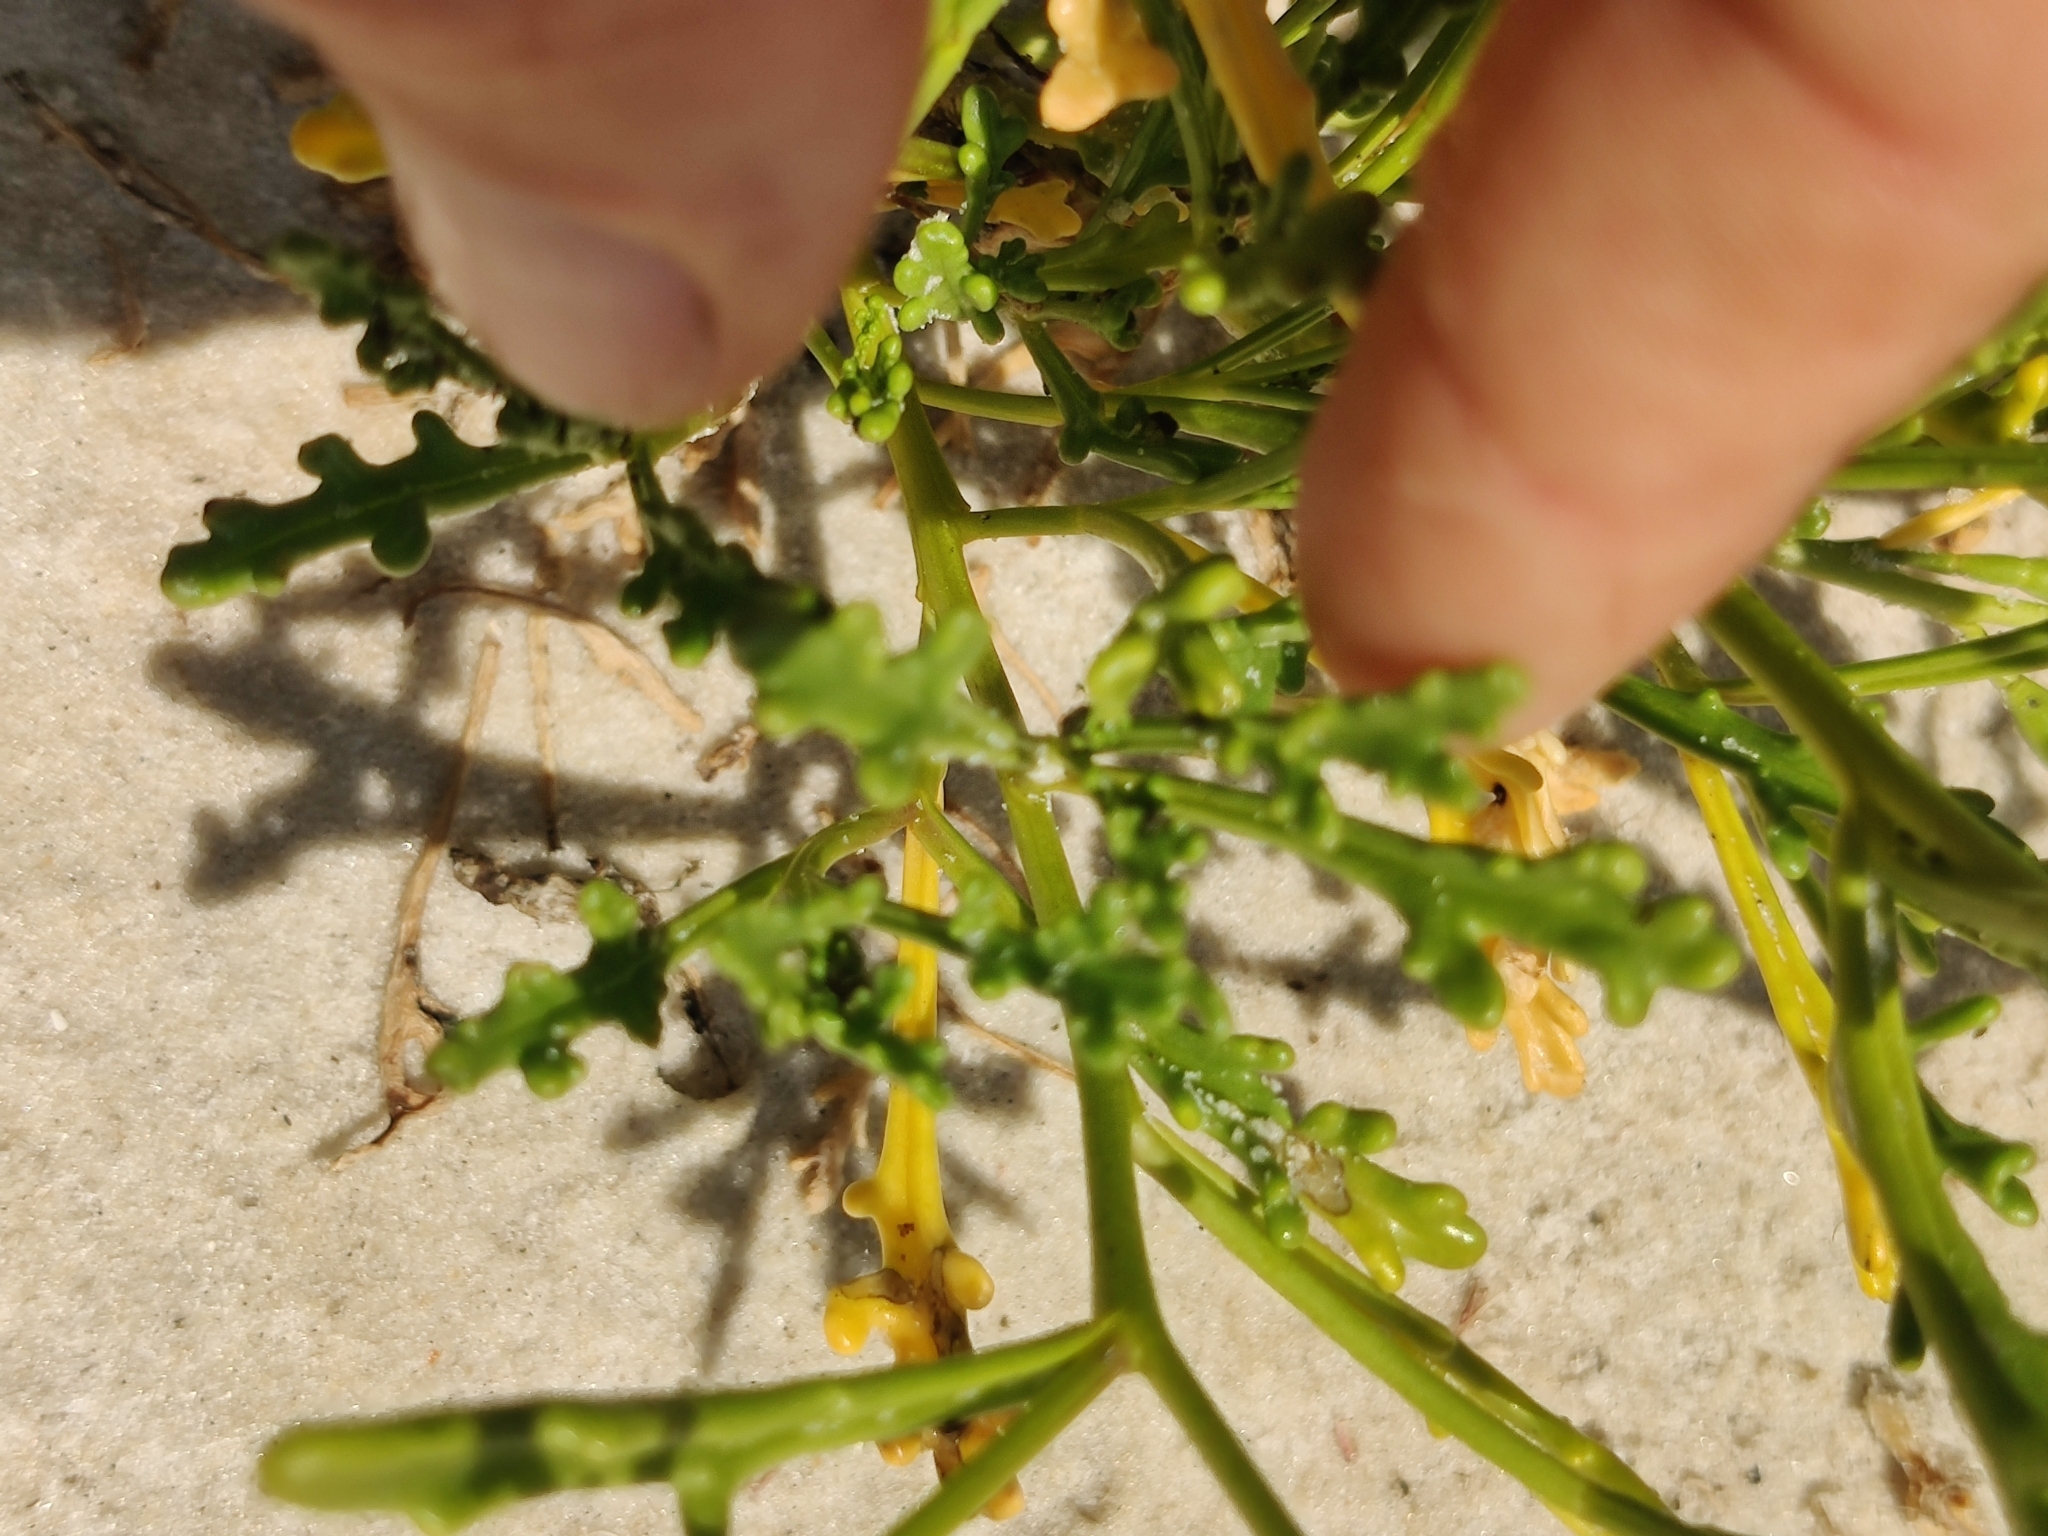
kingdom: Plantae
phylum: Tracheophyta
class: Magnoliopsida
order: Brassicales
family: Brassicaceae
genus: Cakile
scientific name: Cakile constricta
